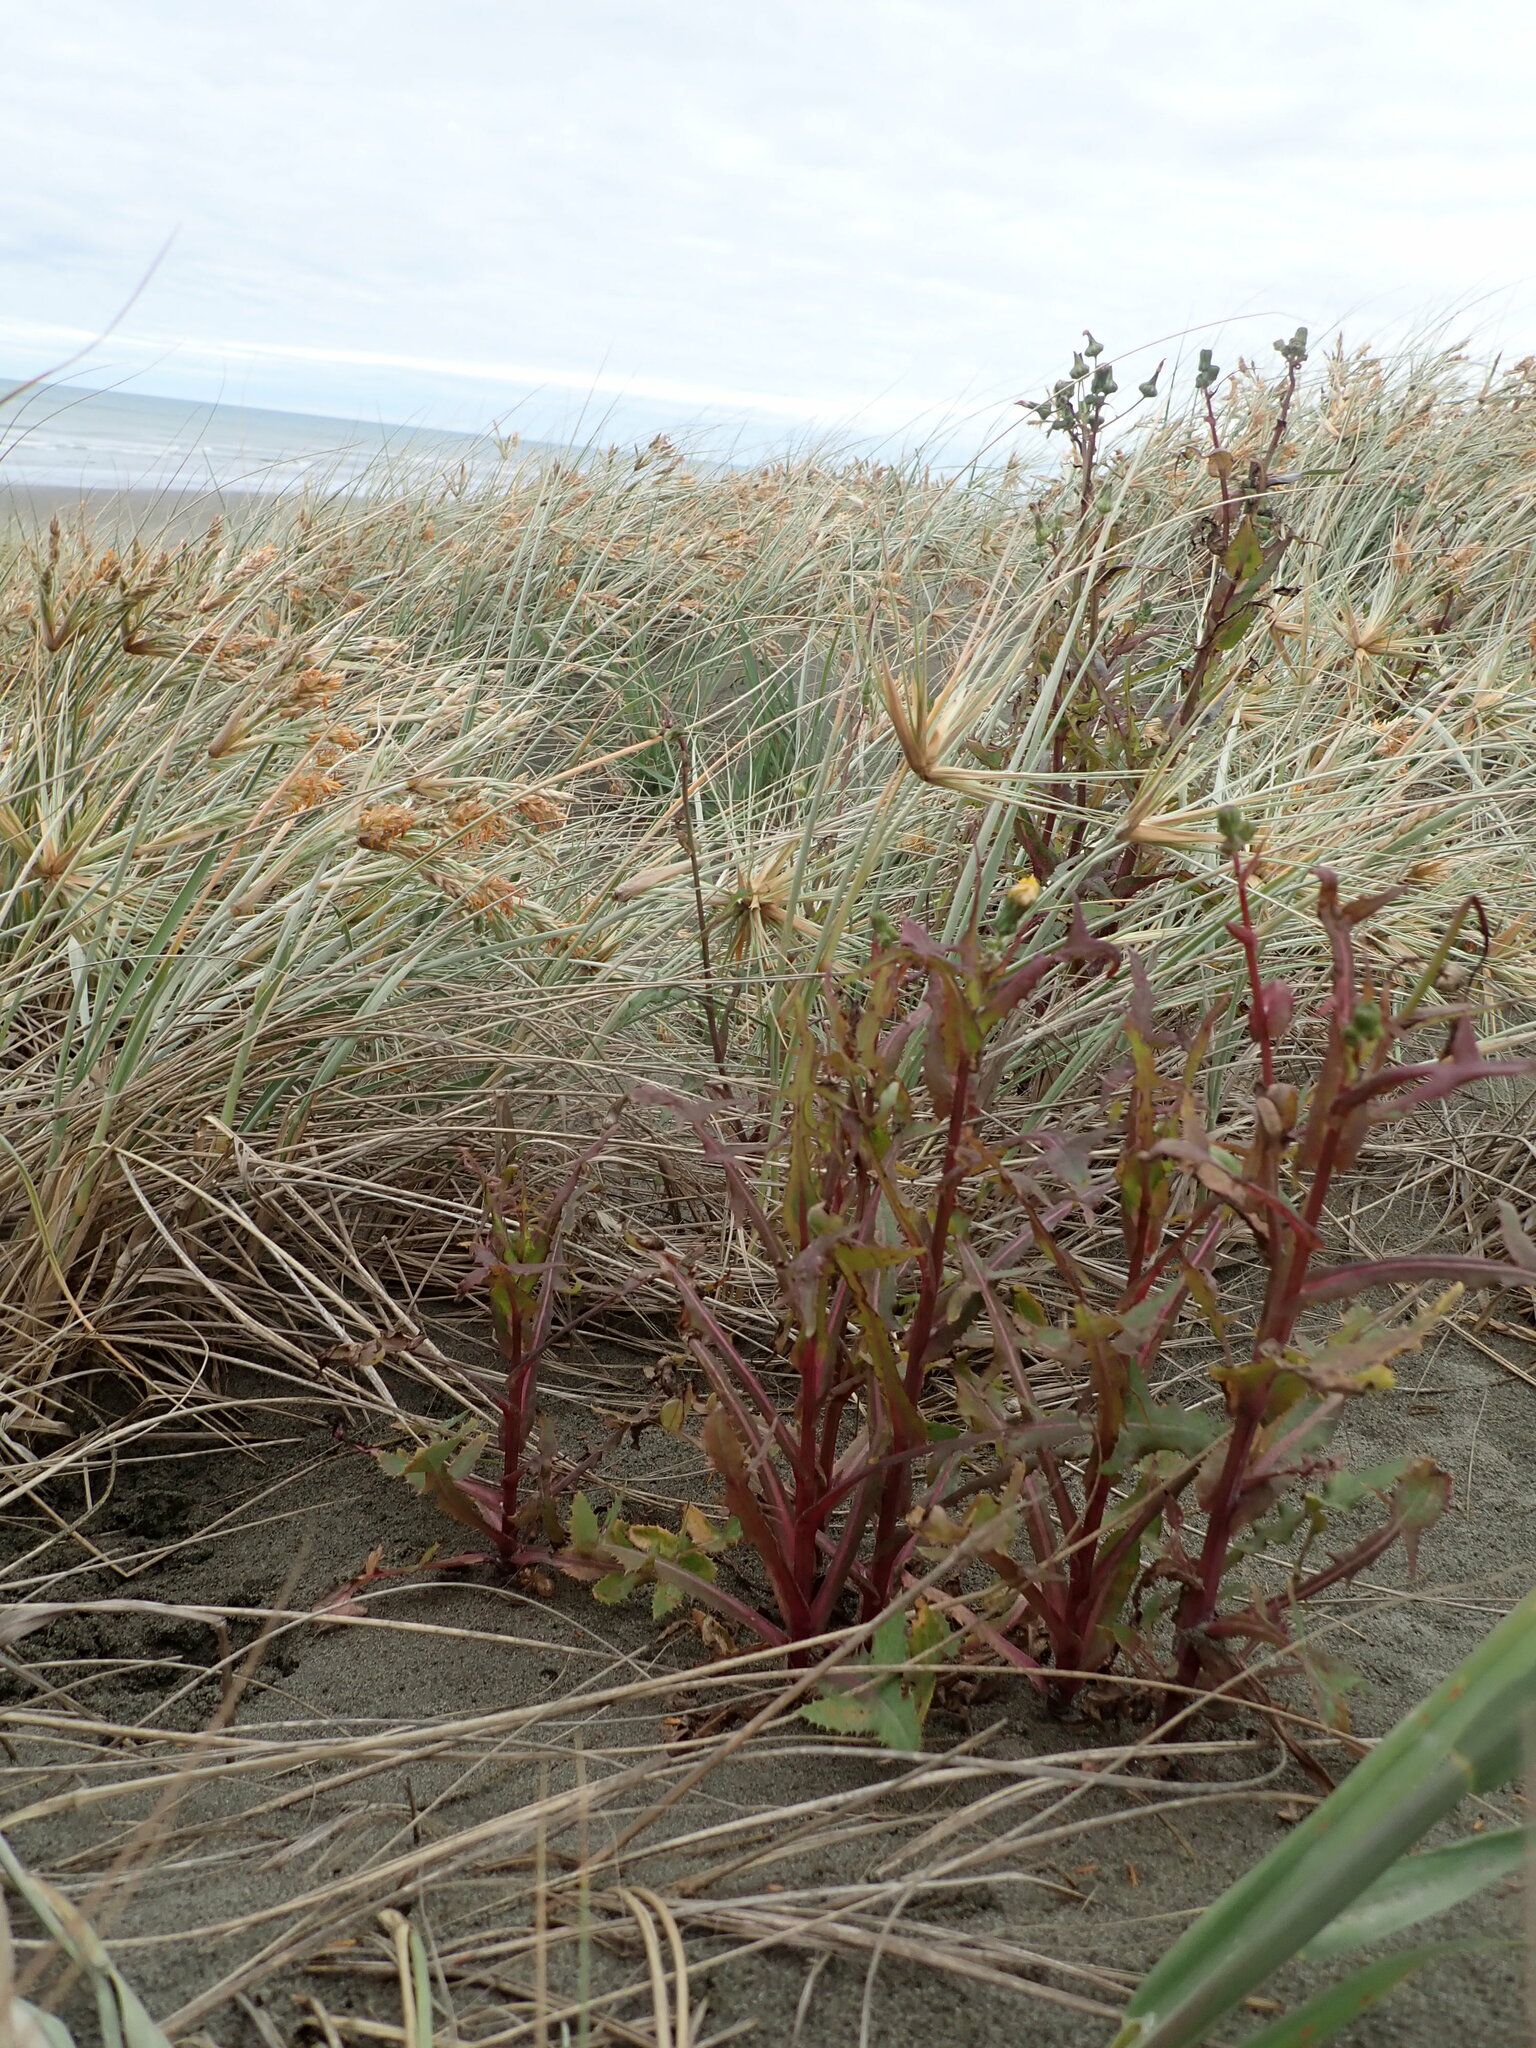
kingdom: Plantae
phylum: Tracheophyta
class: Magnoliopsida
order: Asterales
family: Asteraceae
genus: Sonchus
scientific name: Sonchus oleraceus
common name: Common sowthistle
